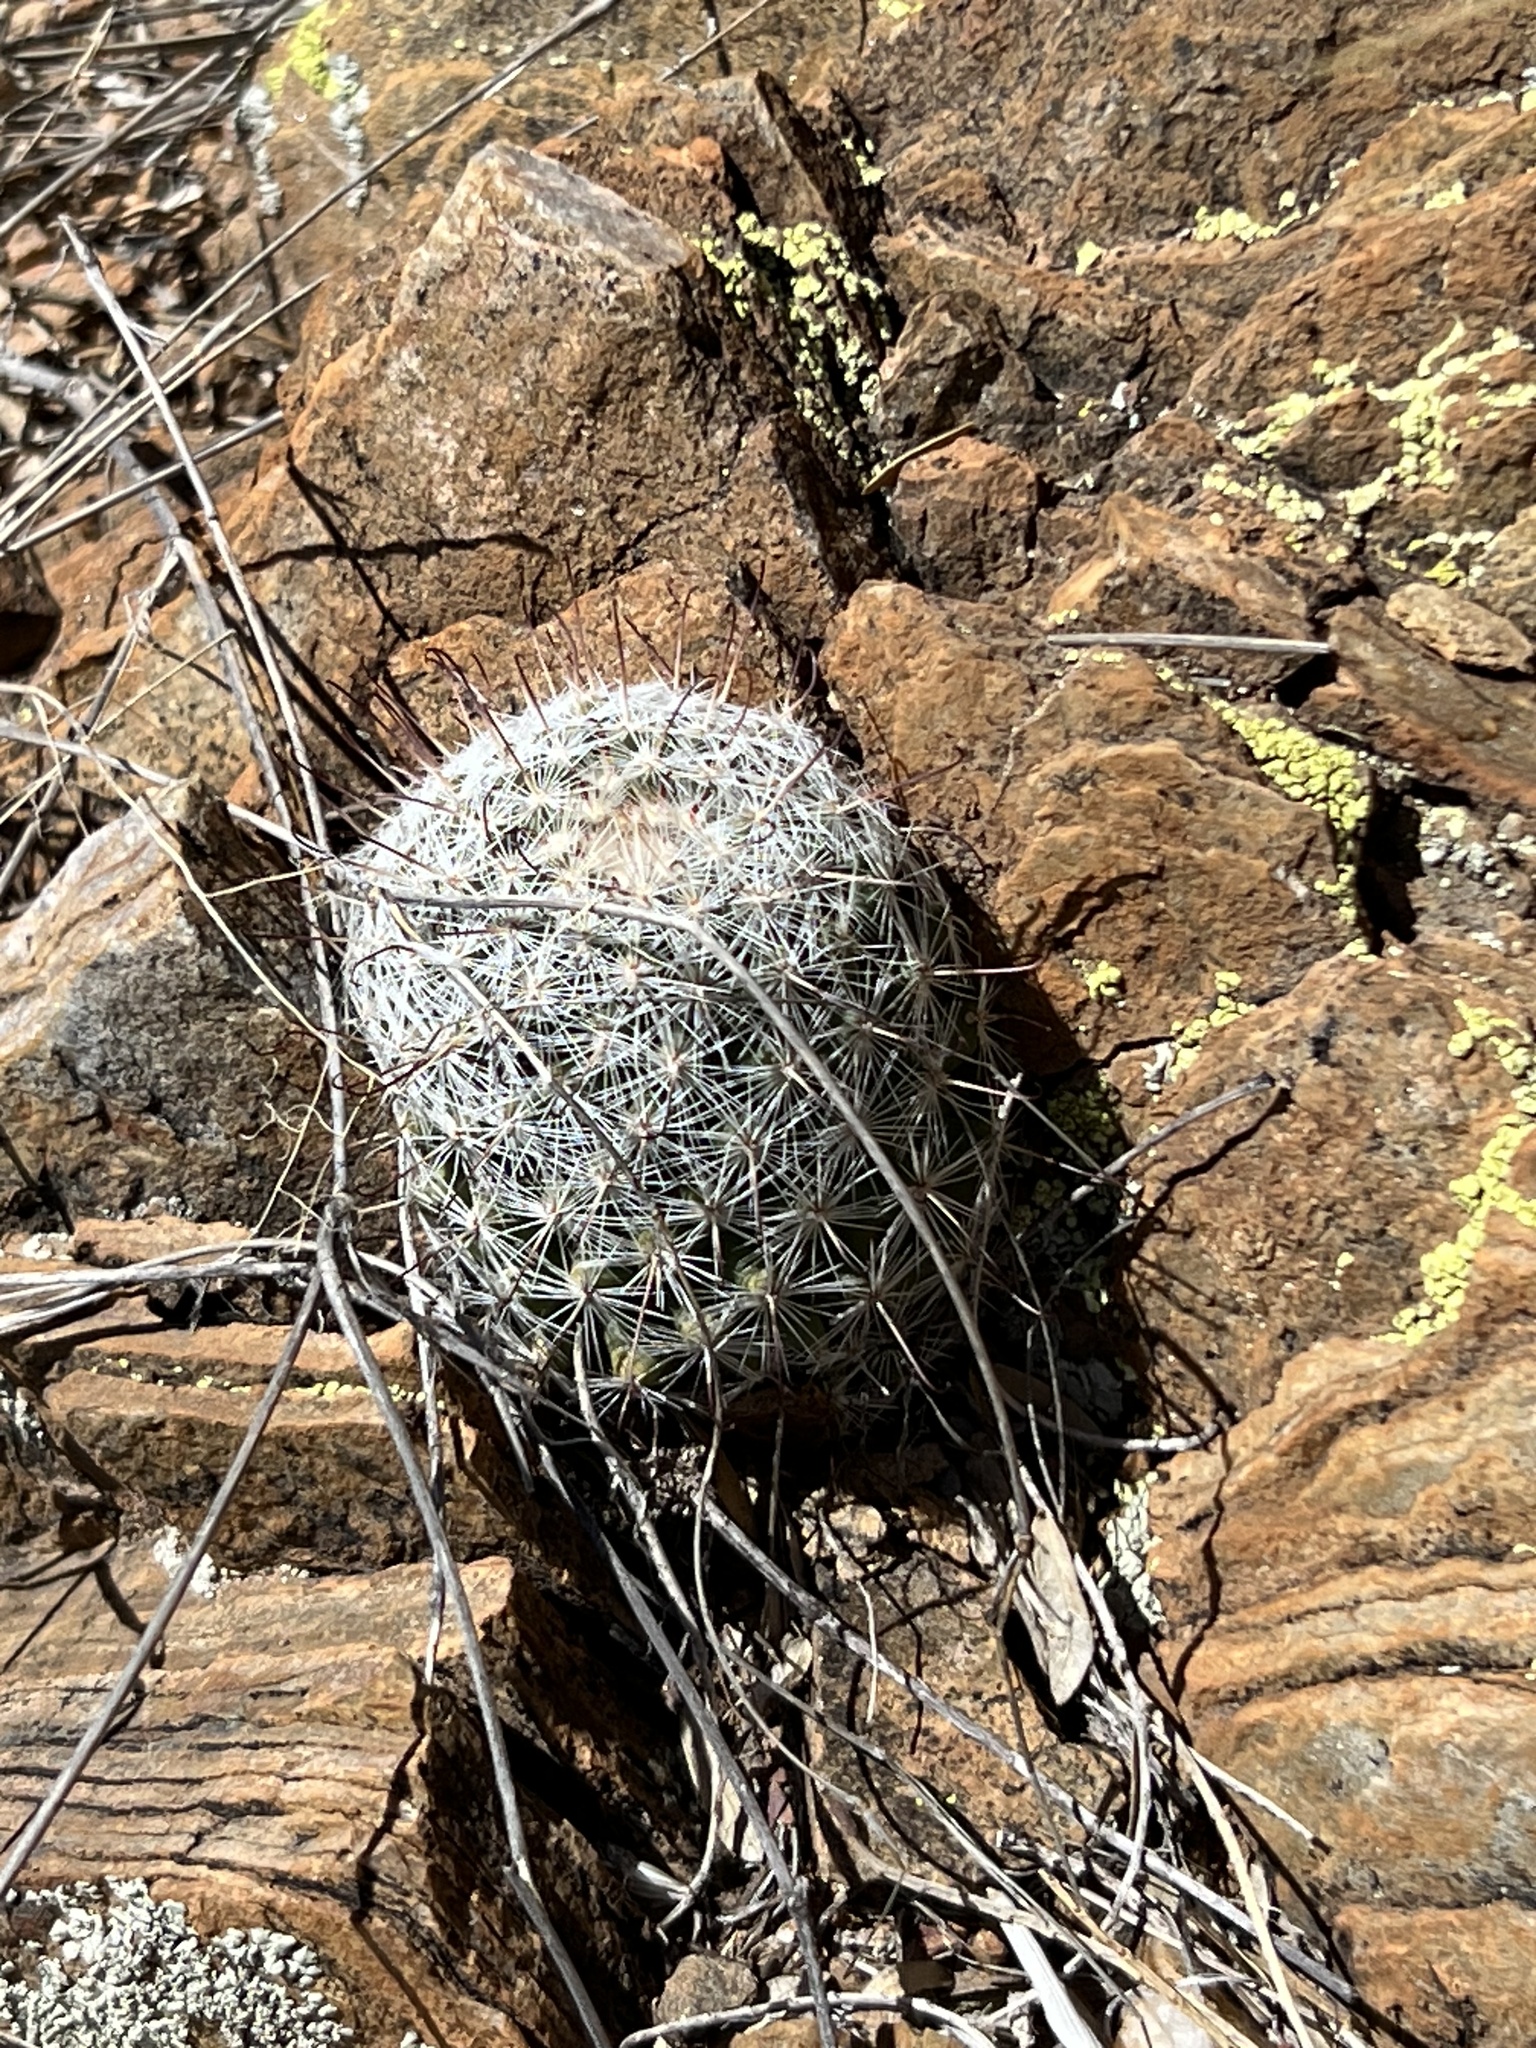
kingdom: Plantae
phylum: Tracheophyta
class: Magnoliopsida
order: Caryophyllales
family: Cactaceae
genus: Cochemiea
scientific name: Cochemiea grahamii
